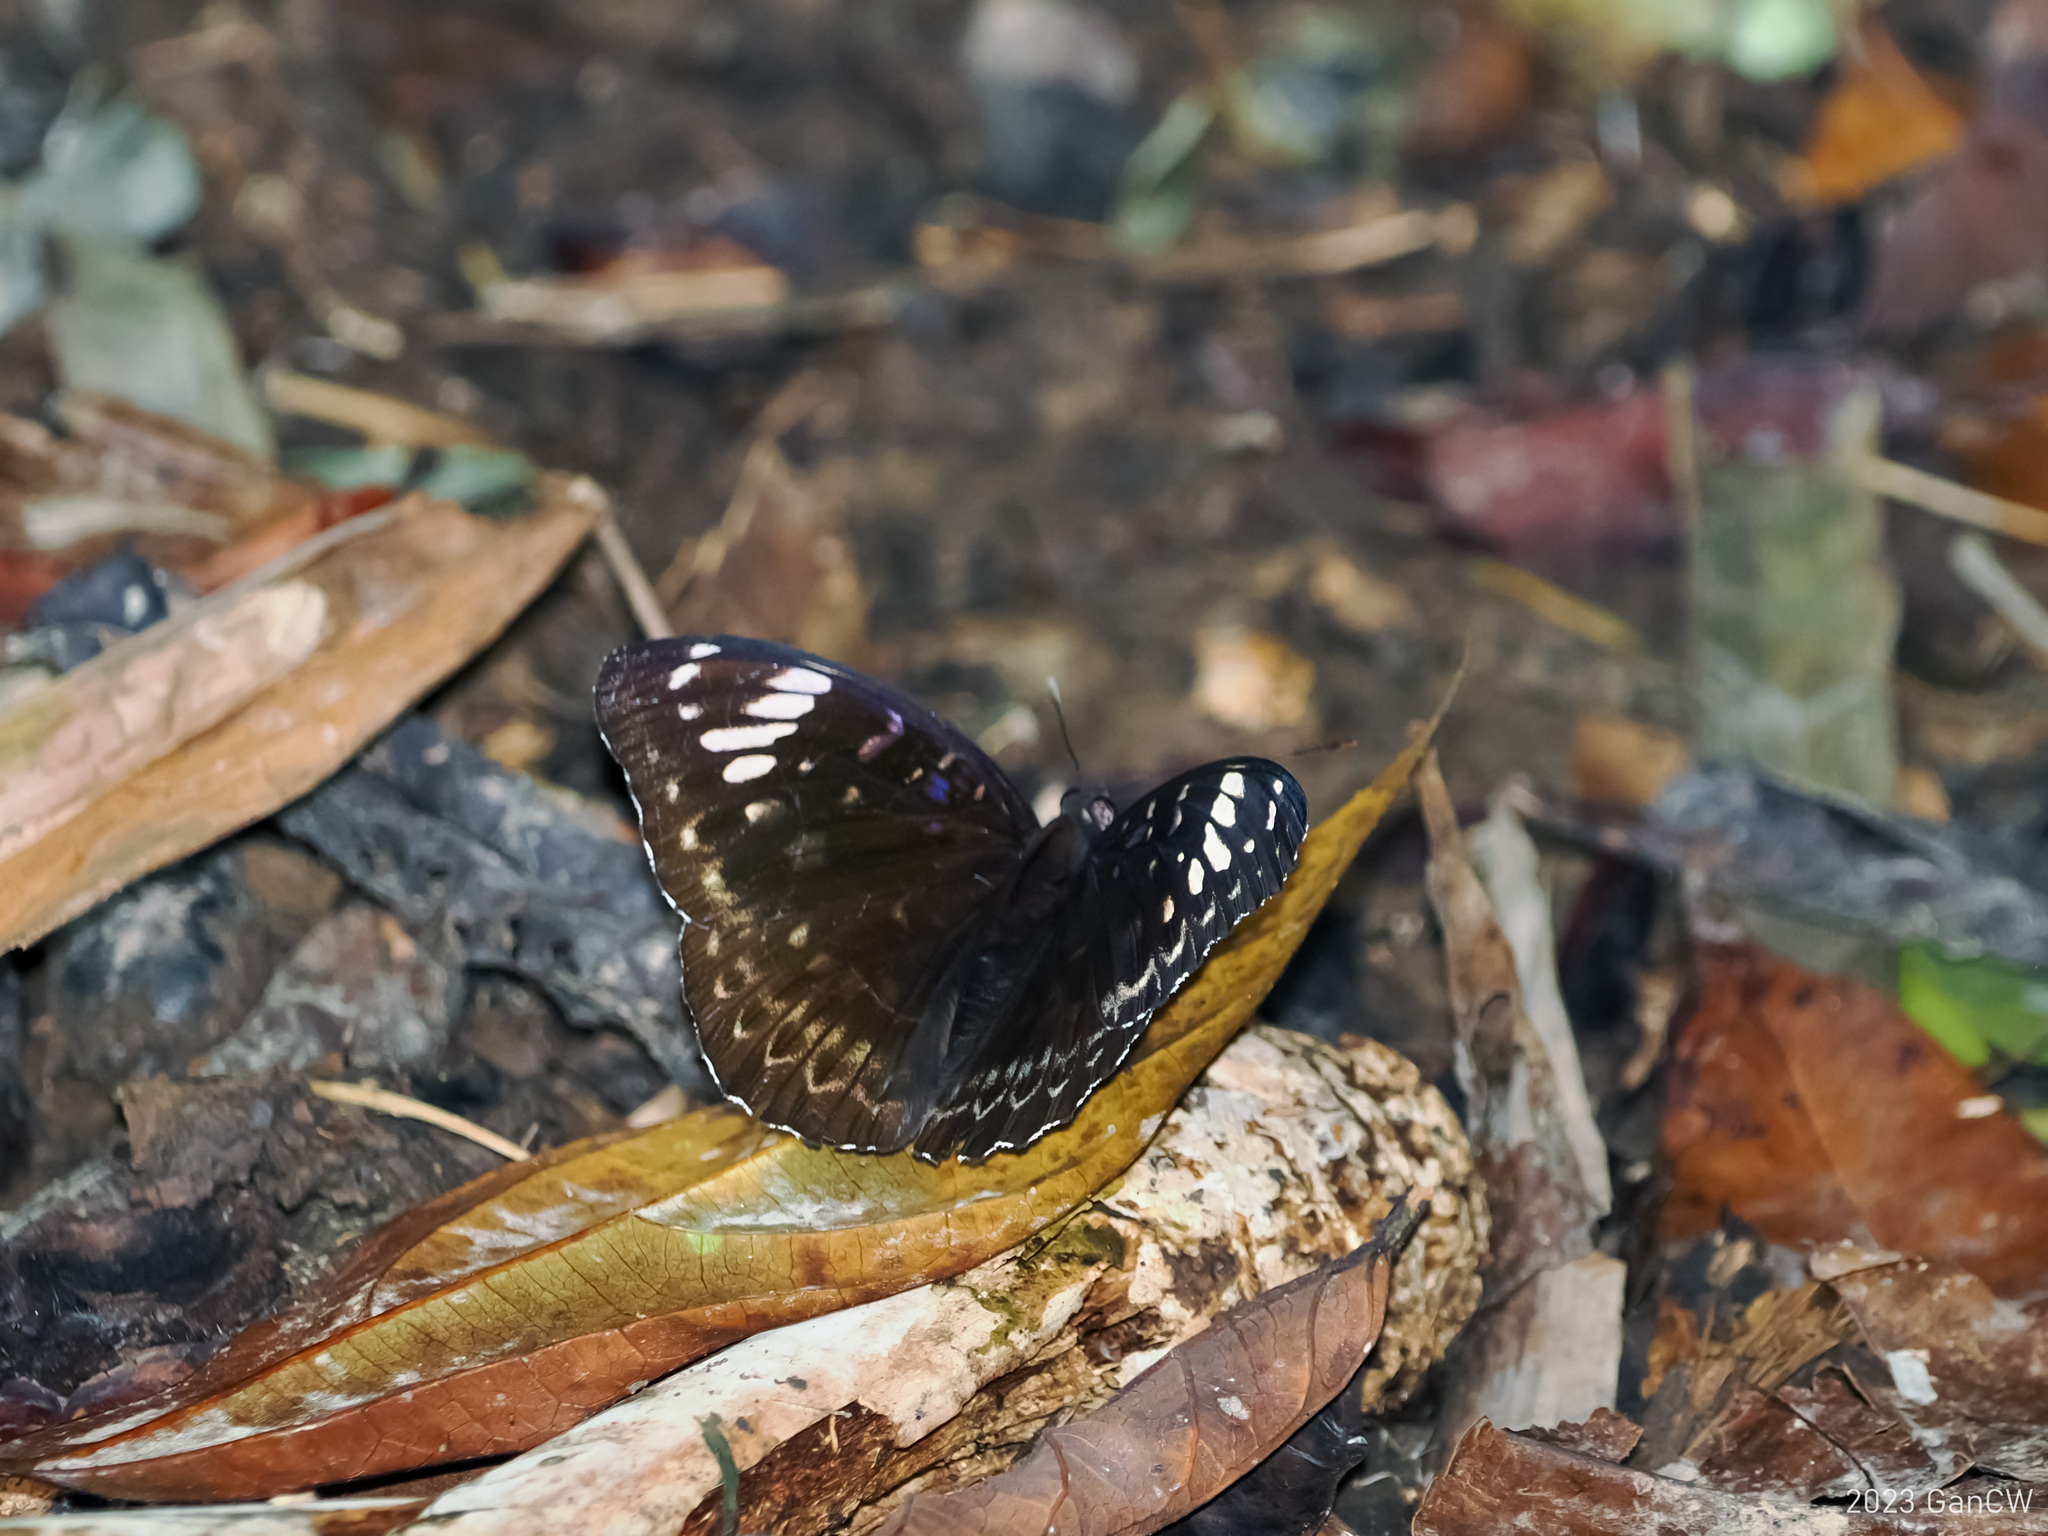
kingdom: Animalia
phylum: Arthropoda
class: Insecta
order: Lepidoptera
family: Nymphalidae
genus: Lexias
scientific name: Lexias aeetes
